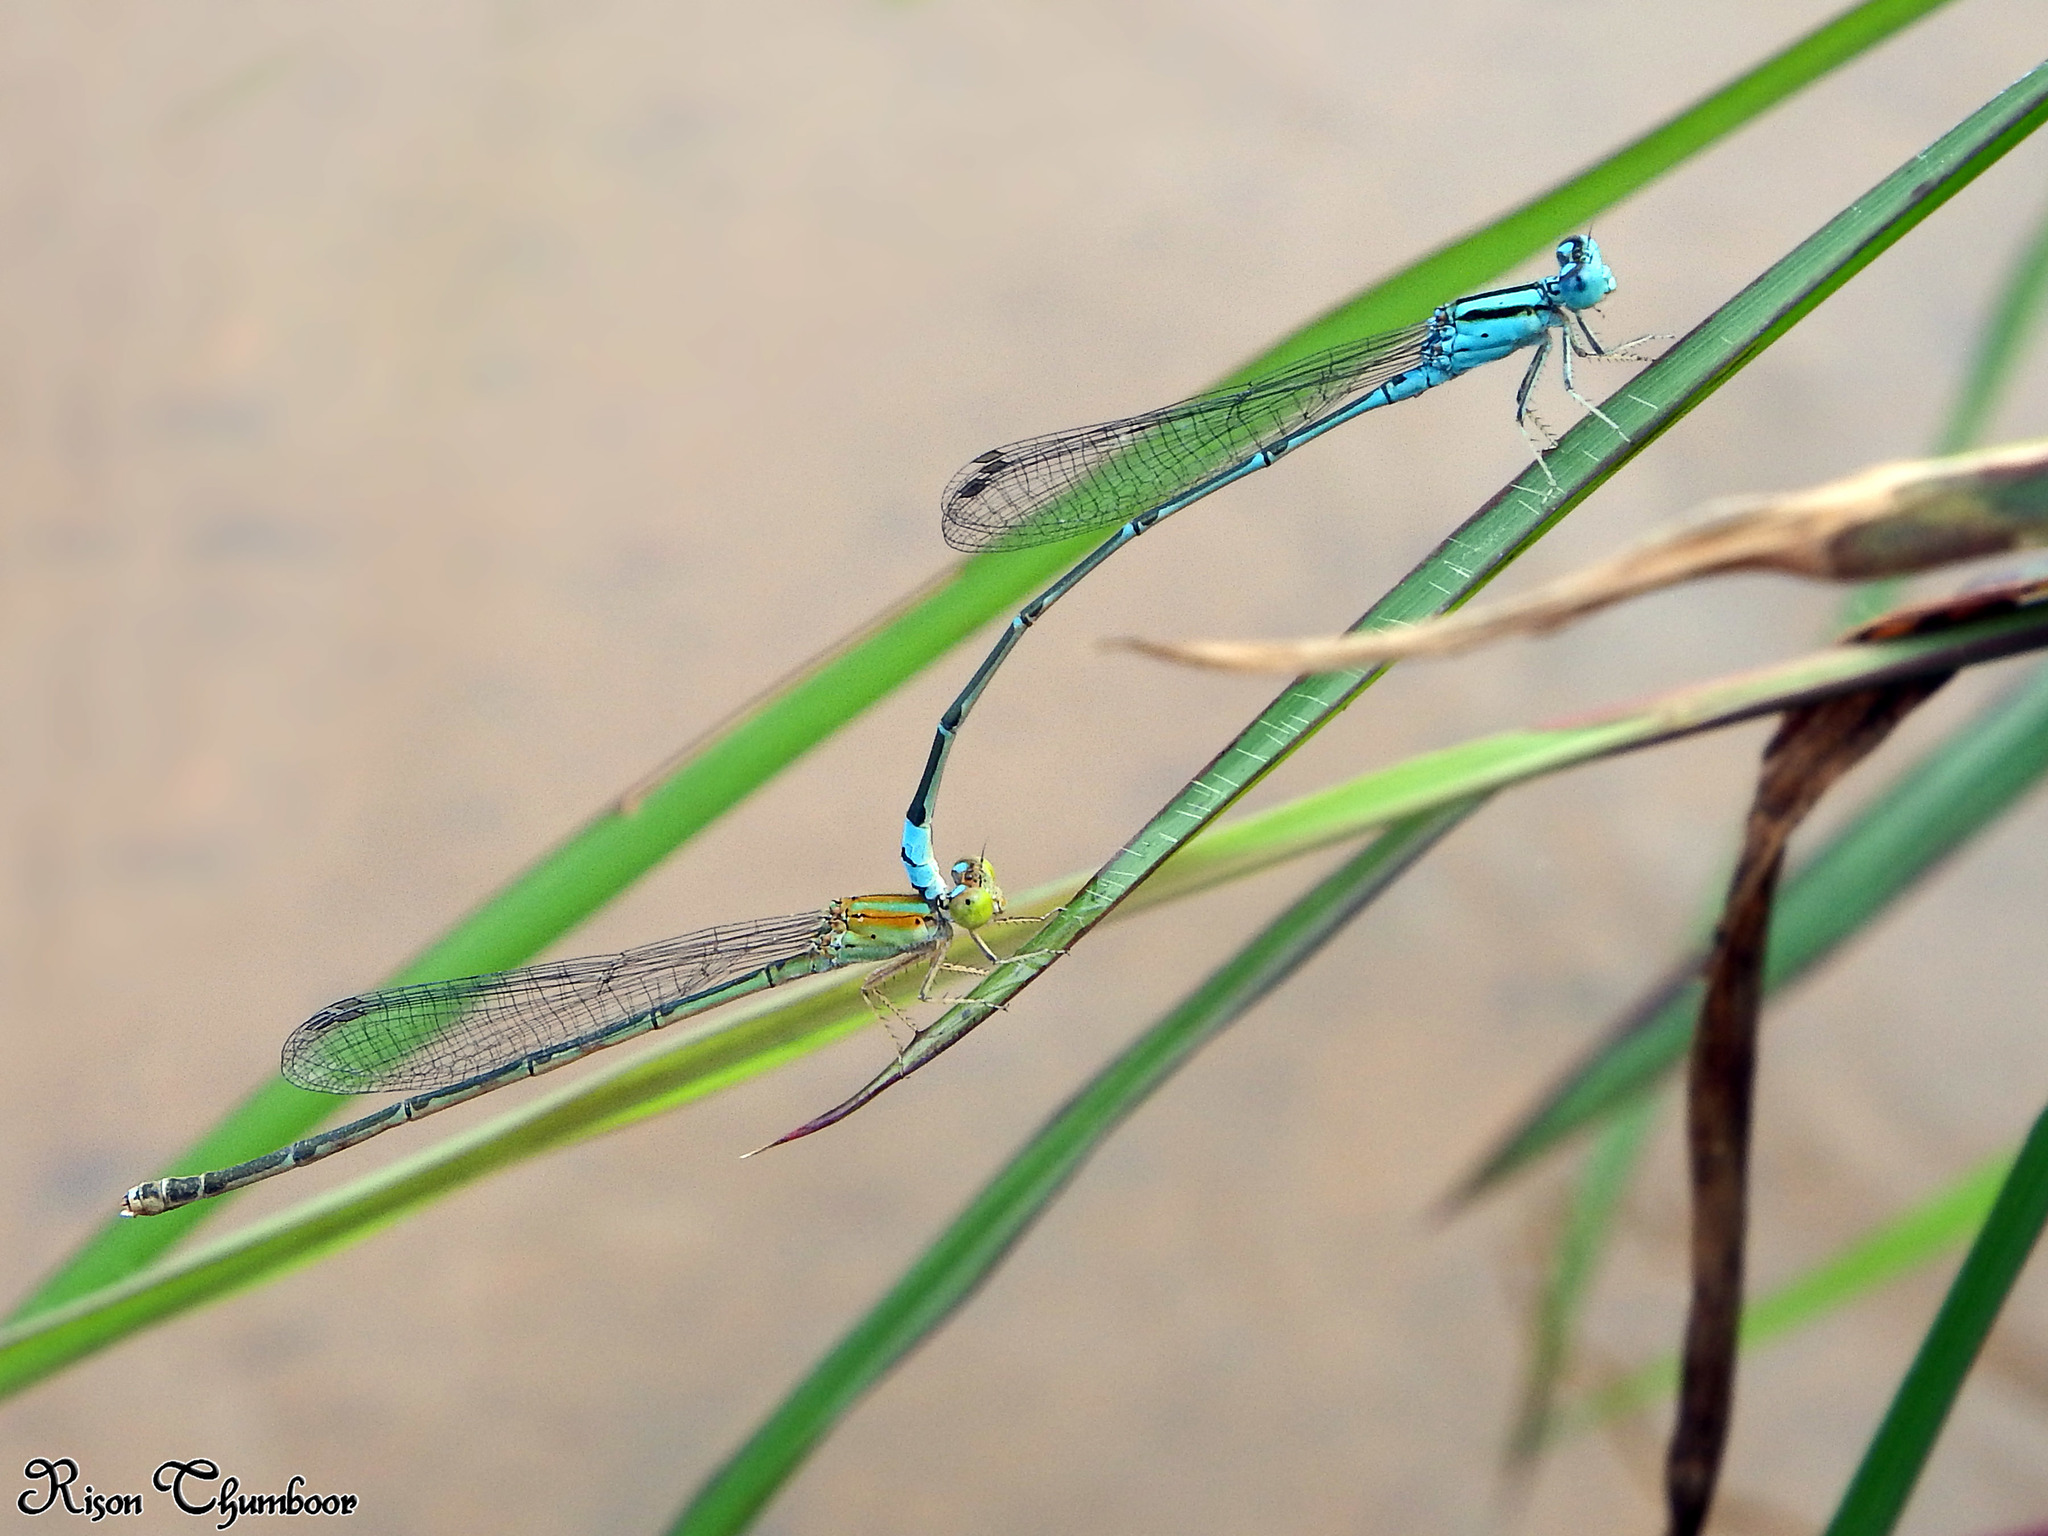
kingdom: Animalia
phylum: Arthropoda
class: Insecta
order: Odonata
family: Coenagrionidae
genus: Pseudagrion
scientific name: Pseudagrion microcephalum
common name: Blue riverdamsel
